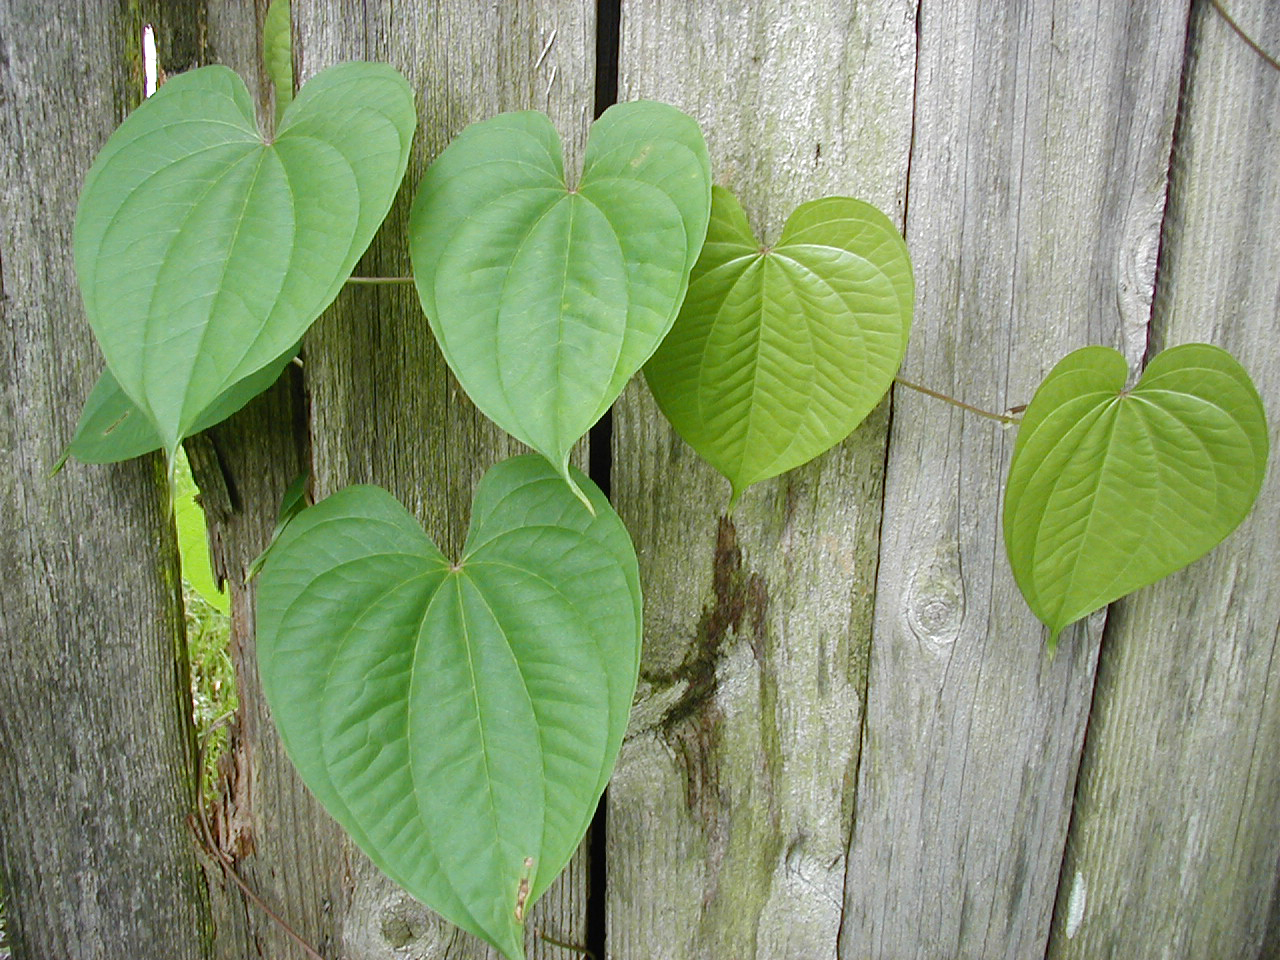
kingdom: Plantae
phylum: Tracheophyta
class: Liliopsida
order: Dioscoreales
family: Dioscoreaceae
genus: Dioscorea
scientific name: Dioscorea bulbifera
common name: Air yam
